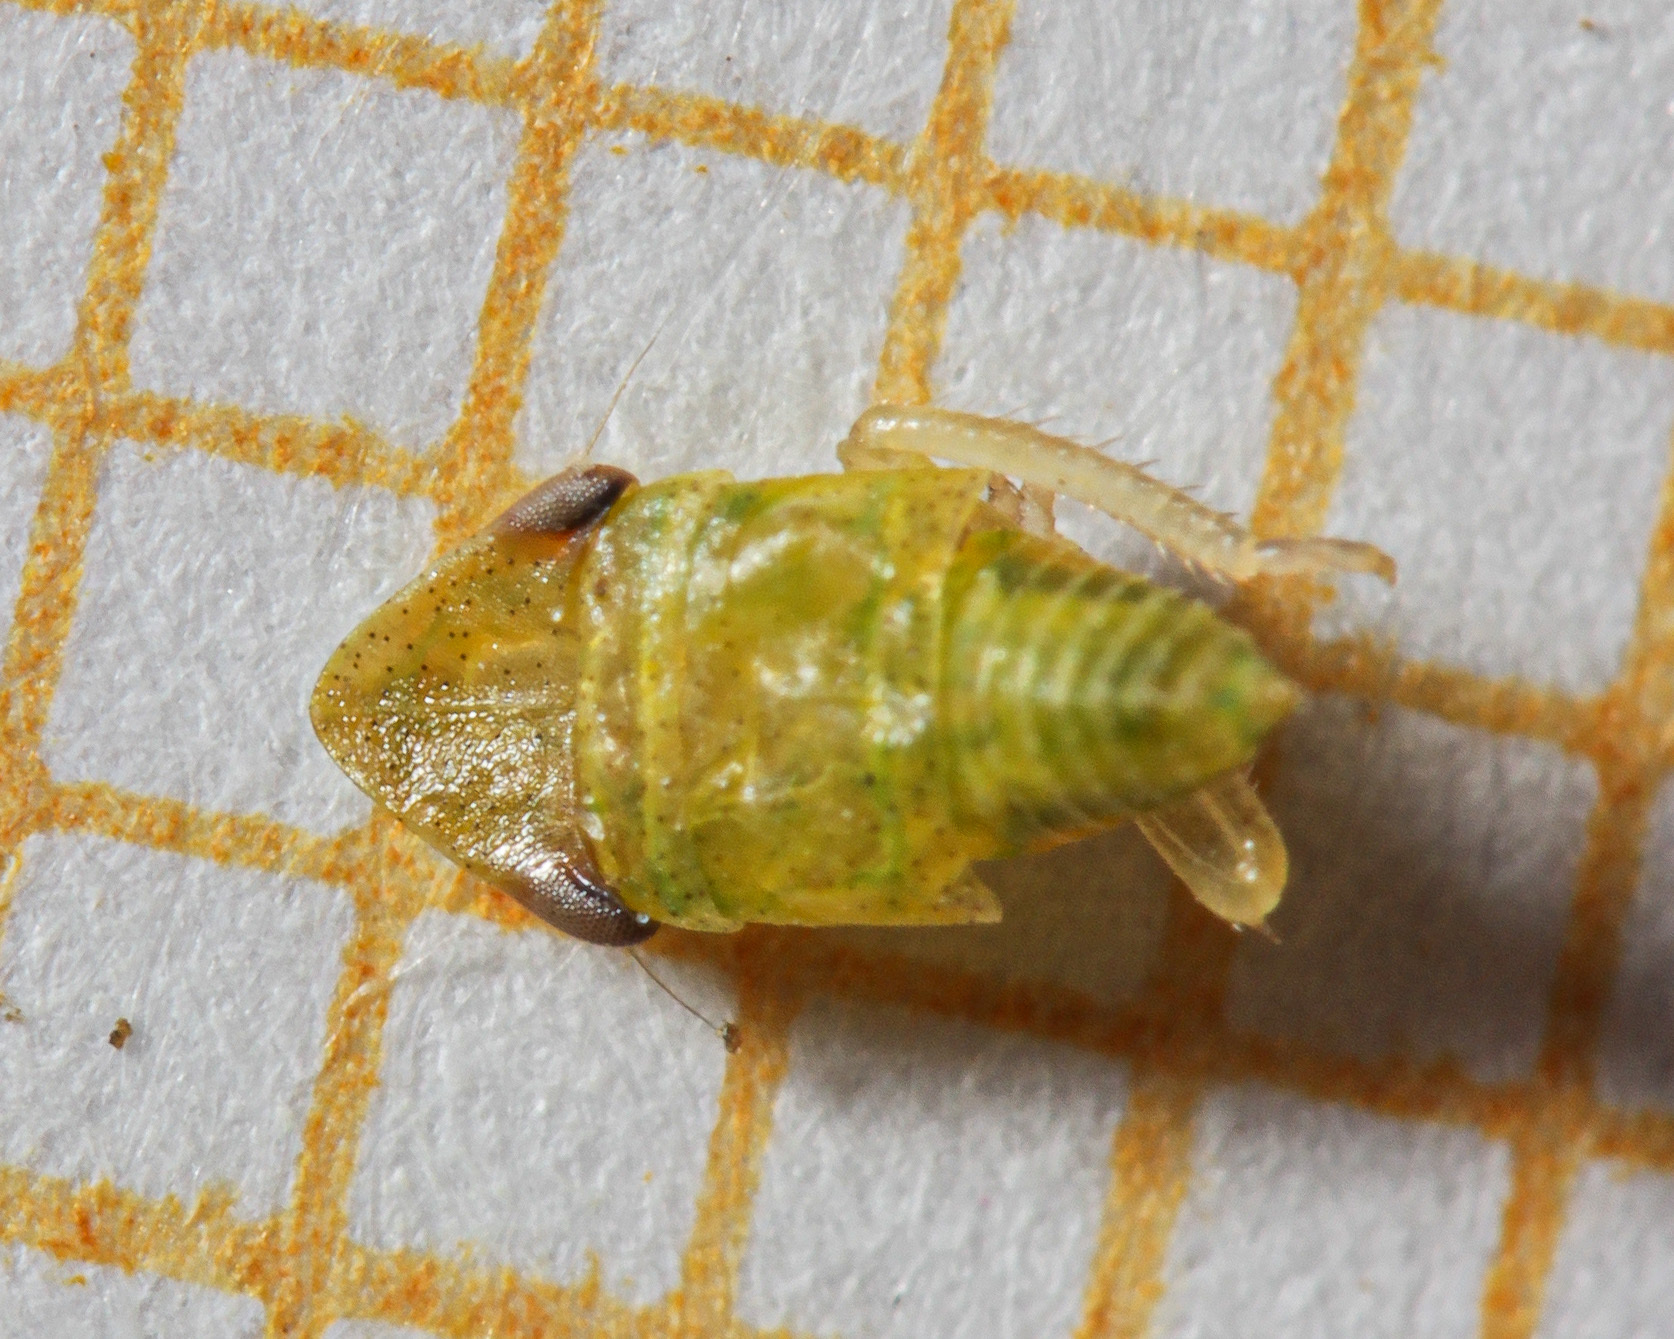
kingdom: Animalia
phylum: Arthropoda
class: Insecta
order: Hemiptera
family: Cicadellidae
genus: Aphrodes
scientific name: Aphrodes
